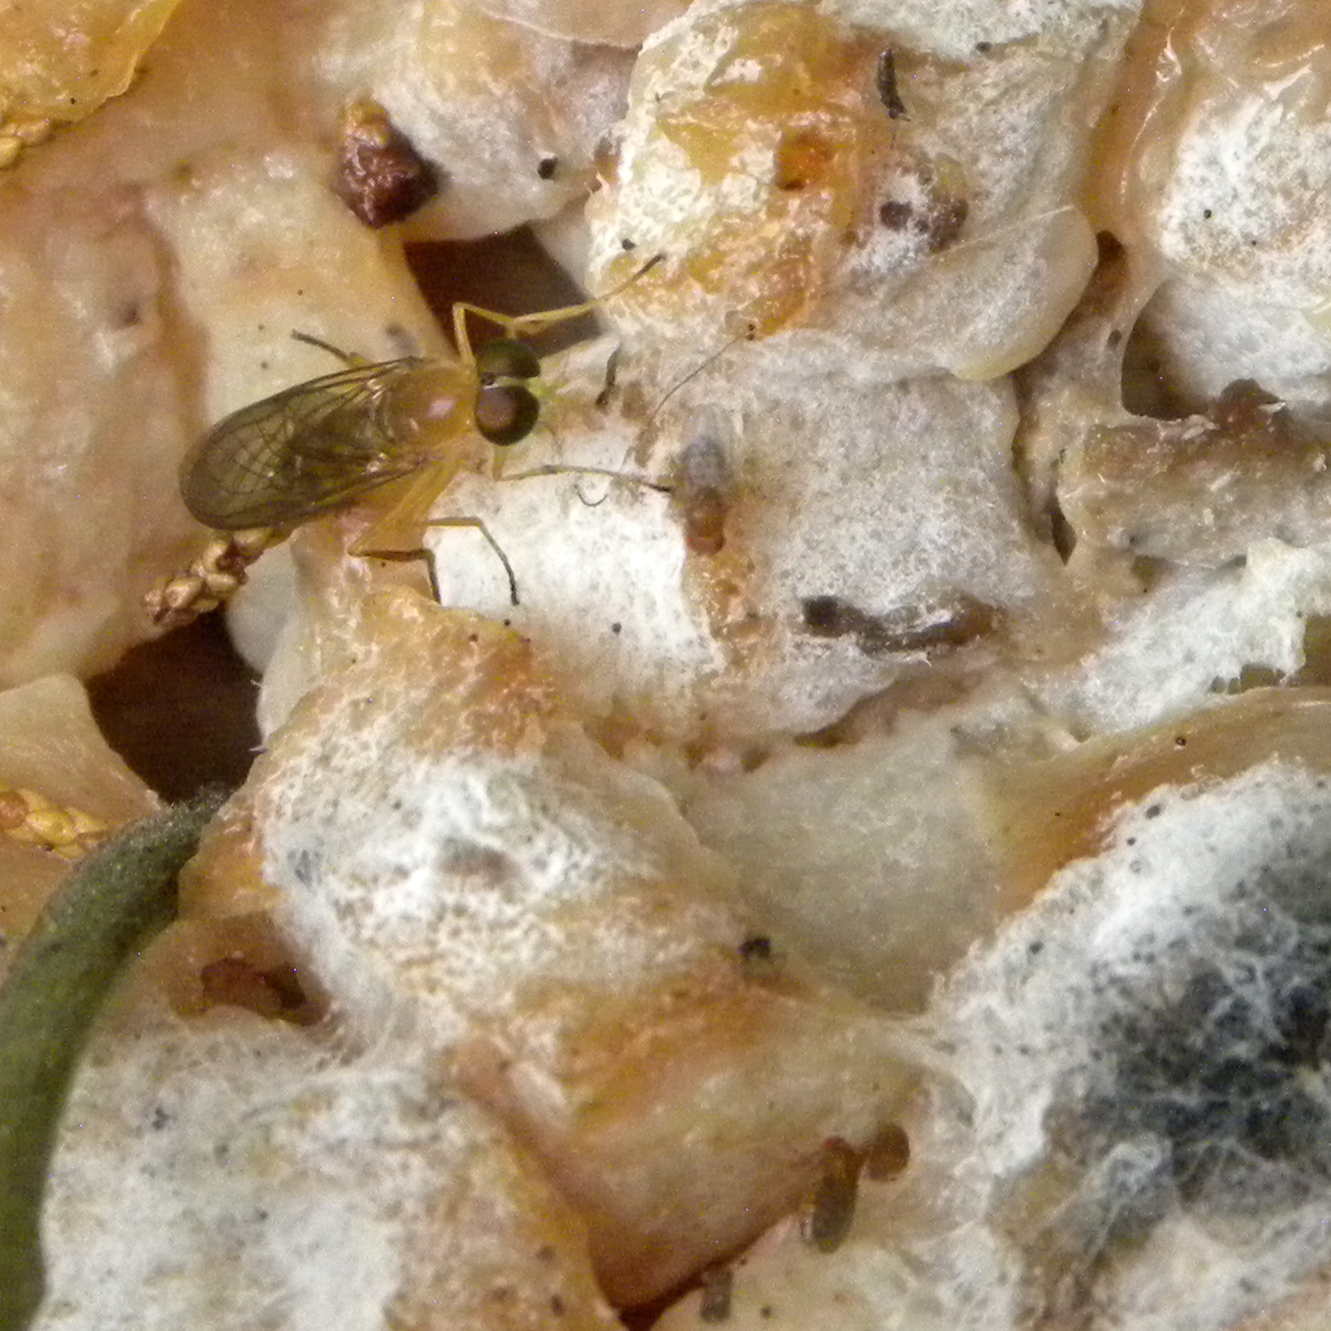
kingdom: Animalia
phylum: Arthropoda
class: Insecta
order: Diptera
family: Stratiomyidae
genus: Ptecticus
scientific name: Ptecticus trivittatus
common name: Compost fly
